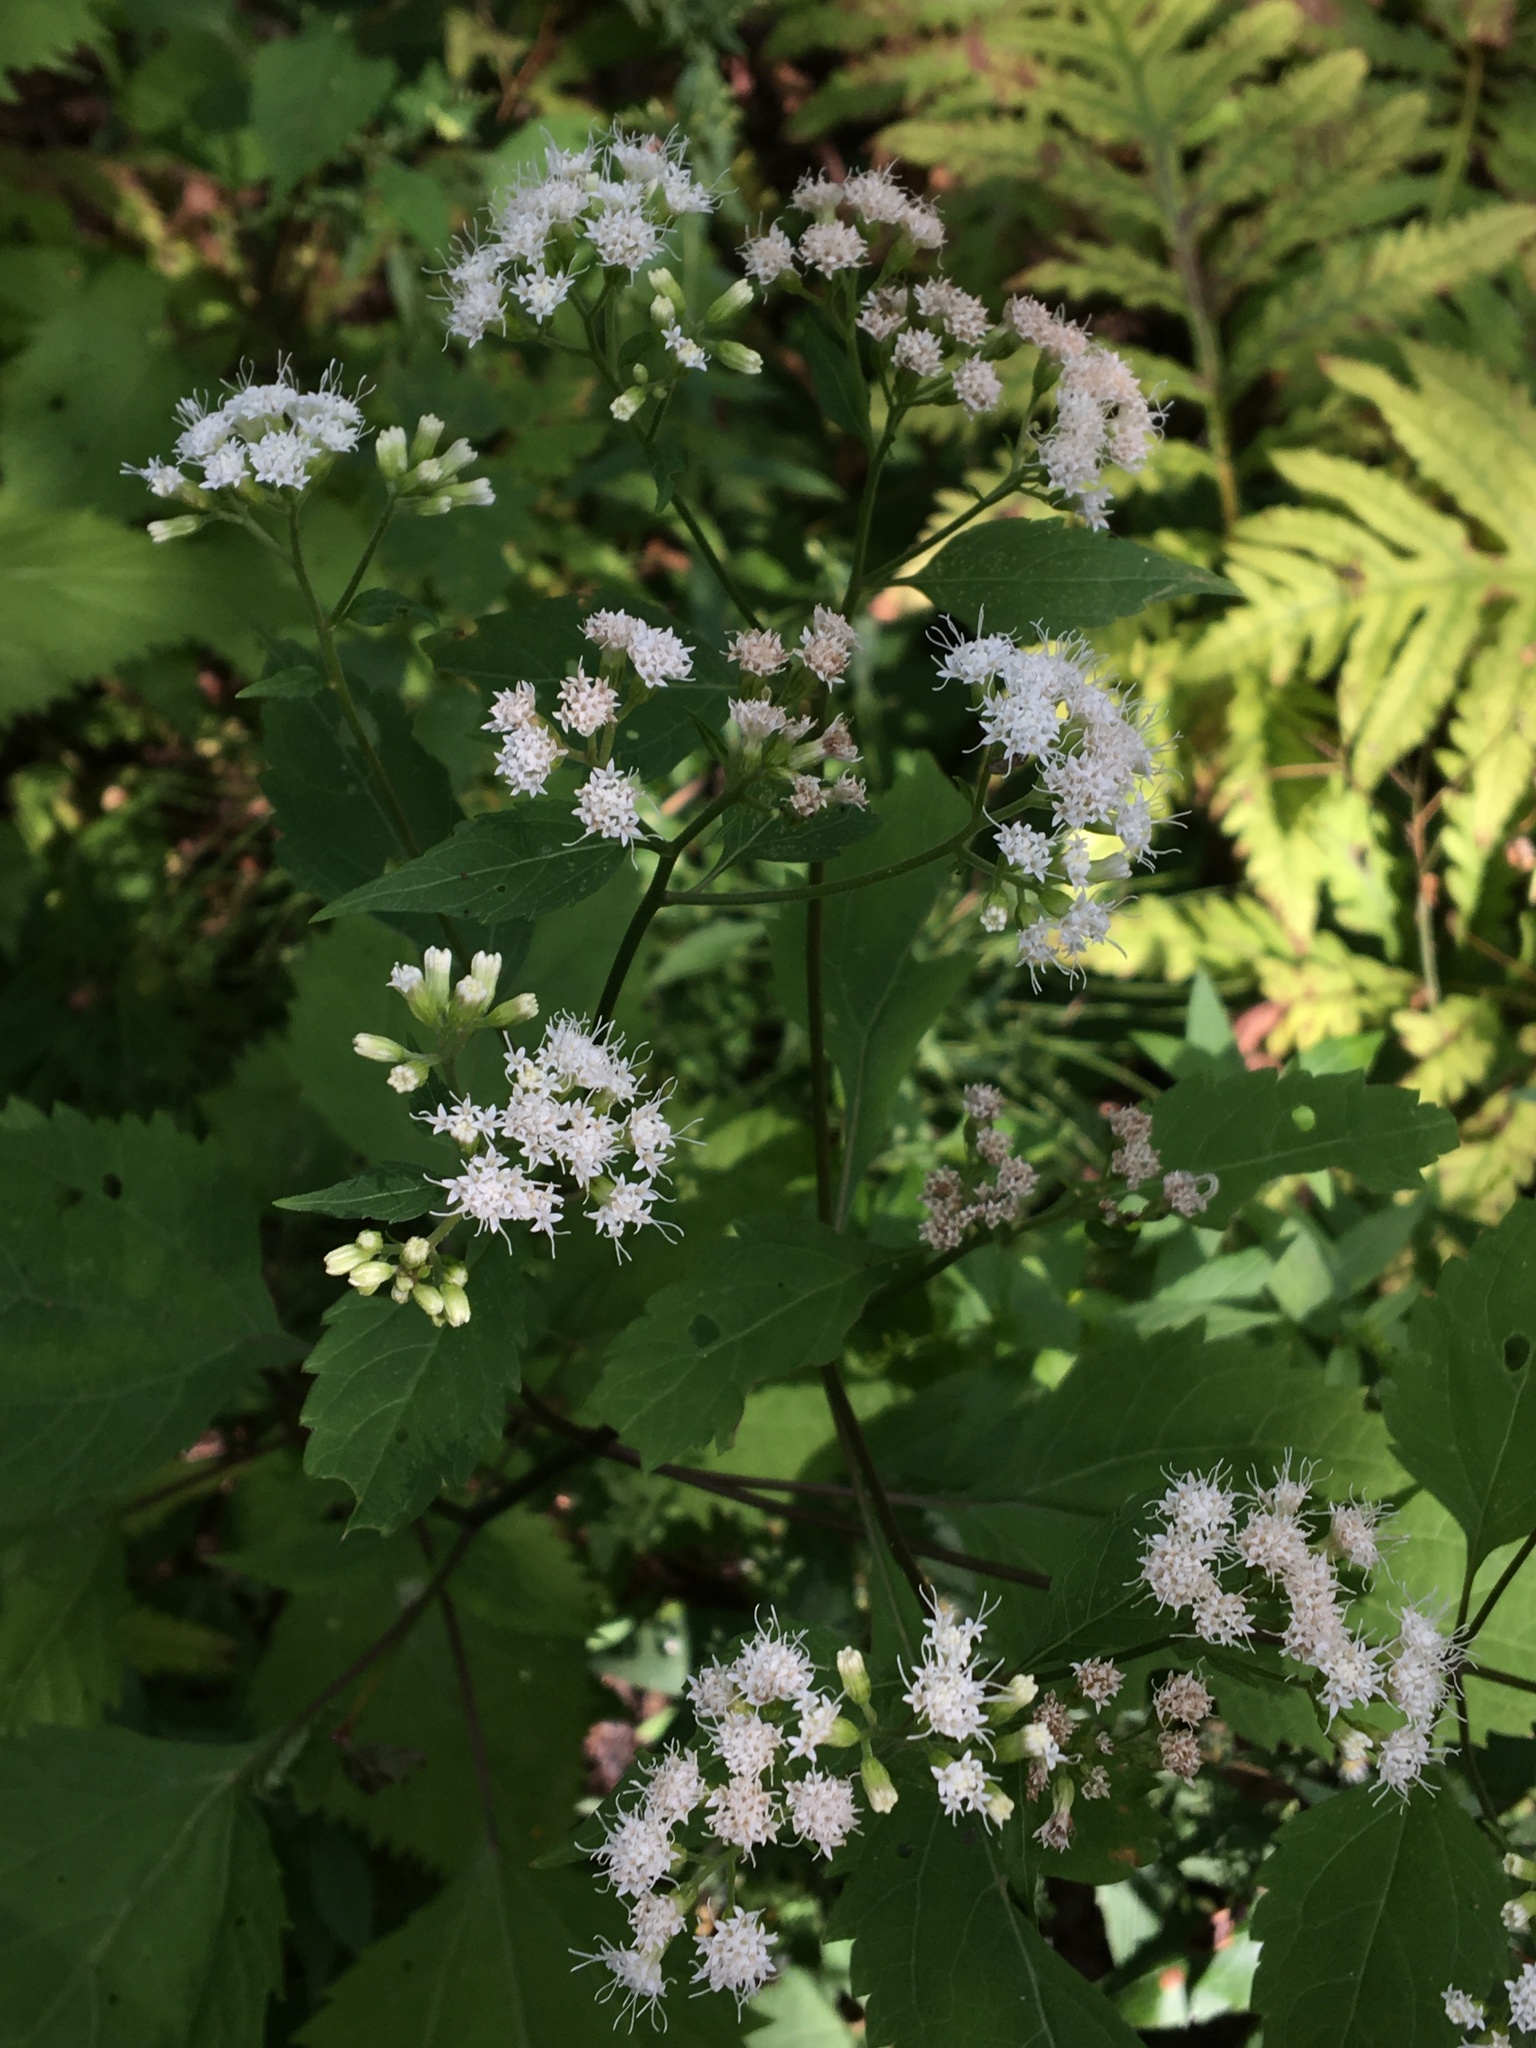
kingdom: Plantae
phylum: Tracheophyta
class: Magnoliopsida
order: Asterales
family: Asteraceae
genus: Ageratina
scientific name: Ageratina altissima
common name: White snakeroot
